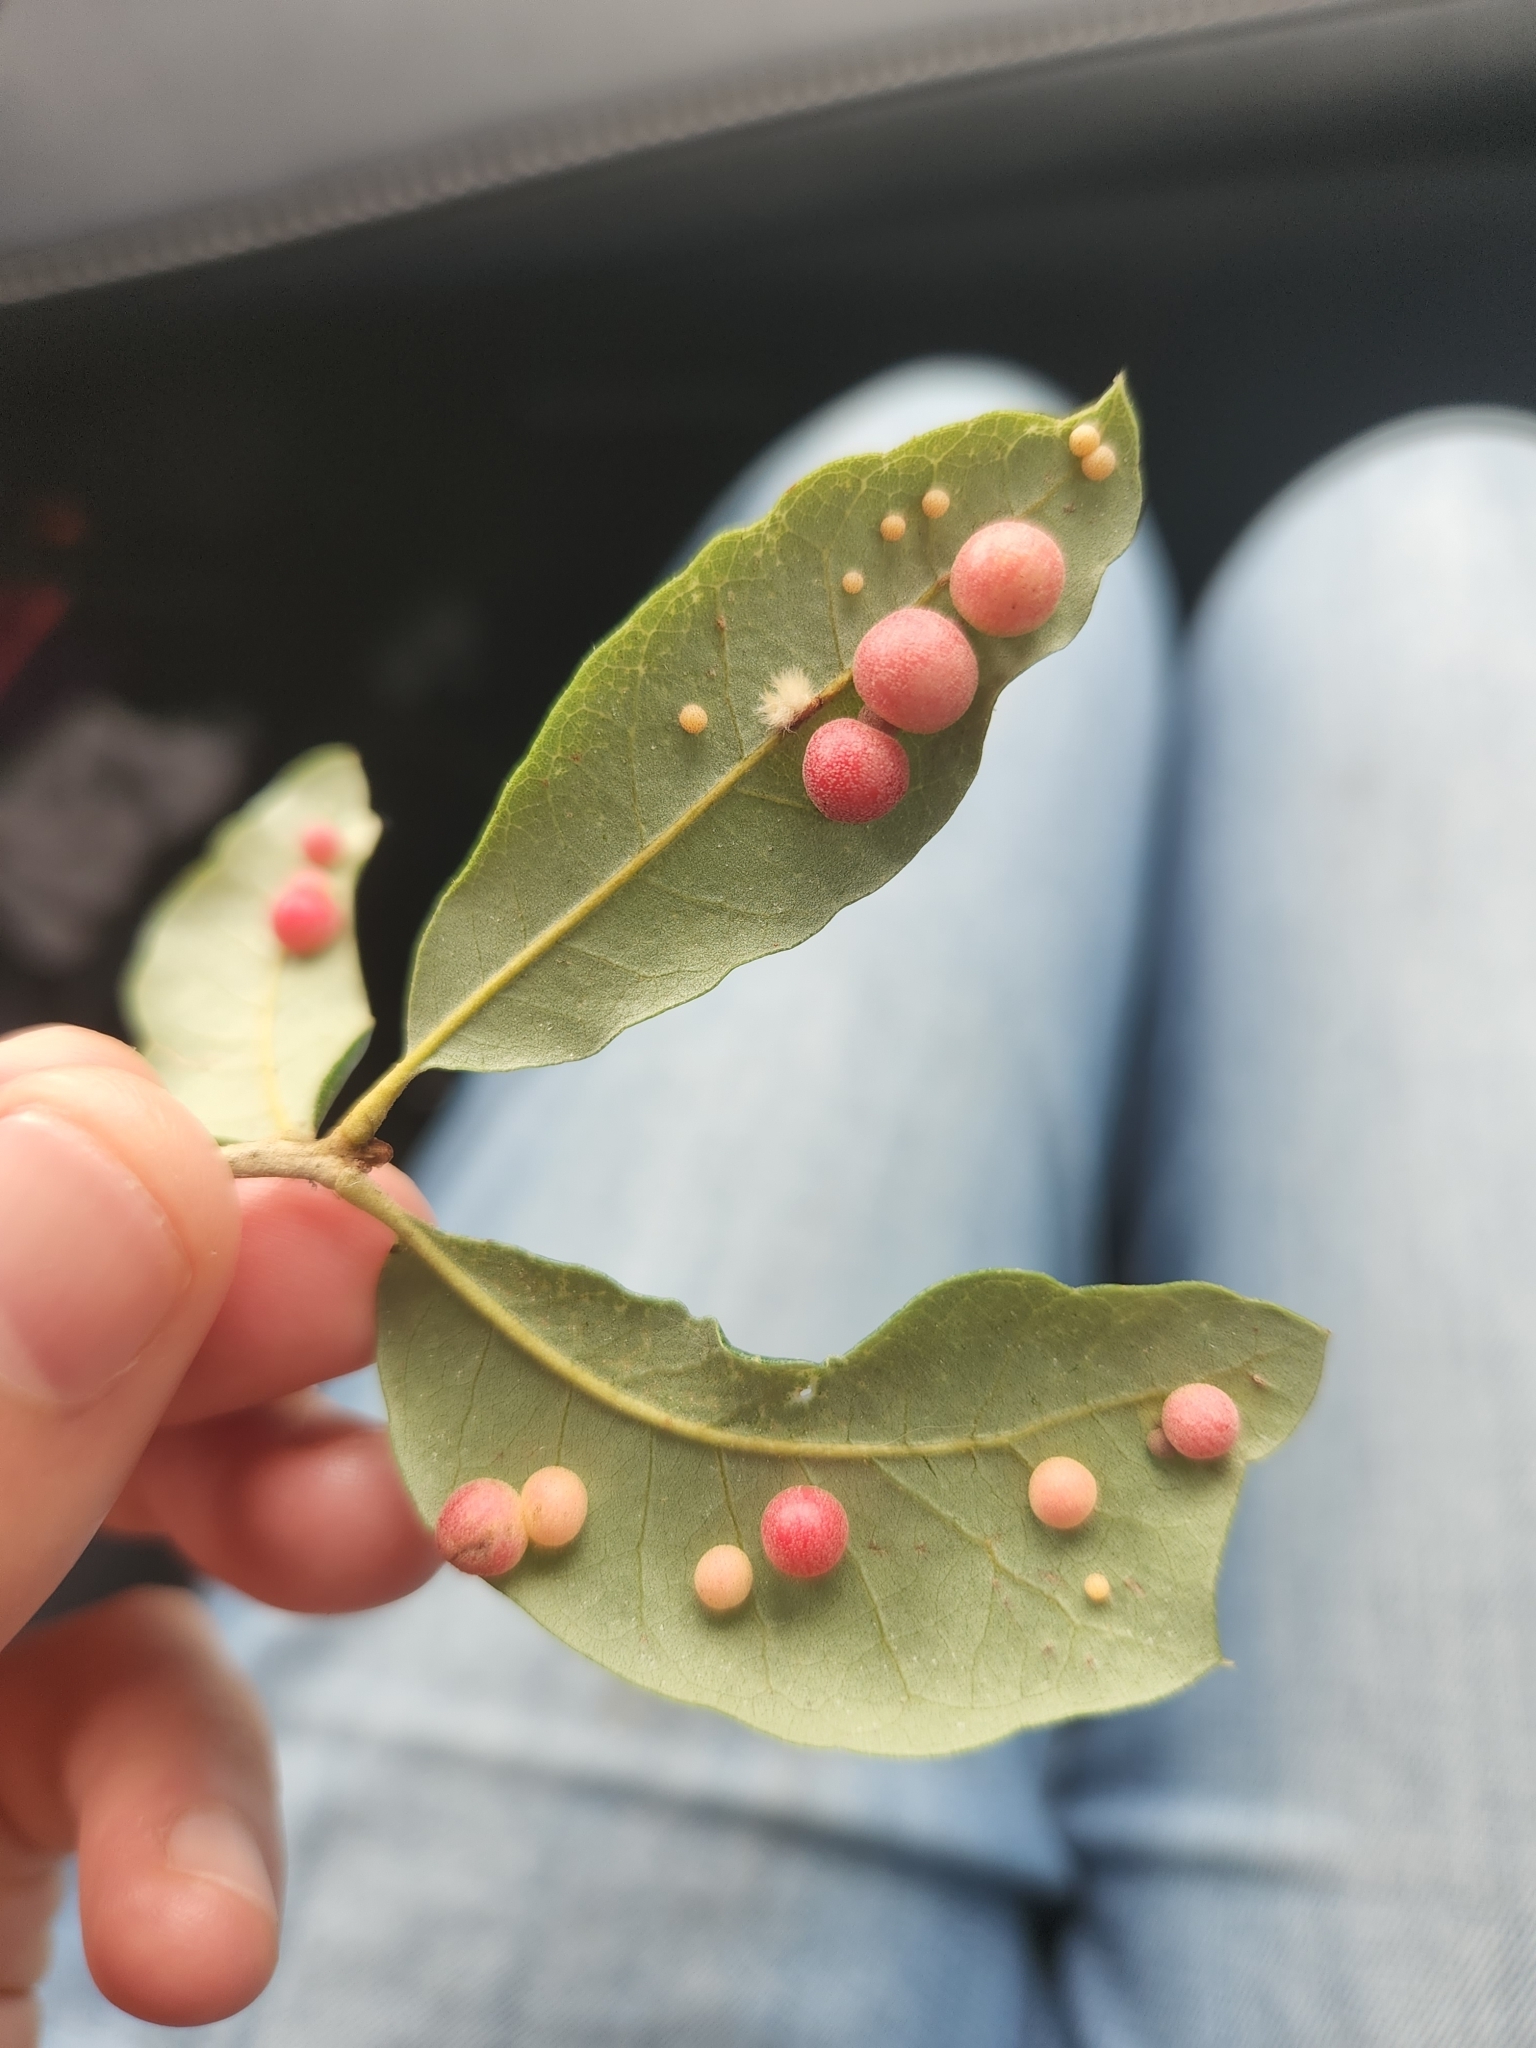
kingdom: Animalia
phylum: Arthropoda
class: Insecta
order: Hymenoptera
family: Cynipidae
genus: Belonocnema
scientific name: Belonocnema kinseyi
